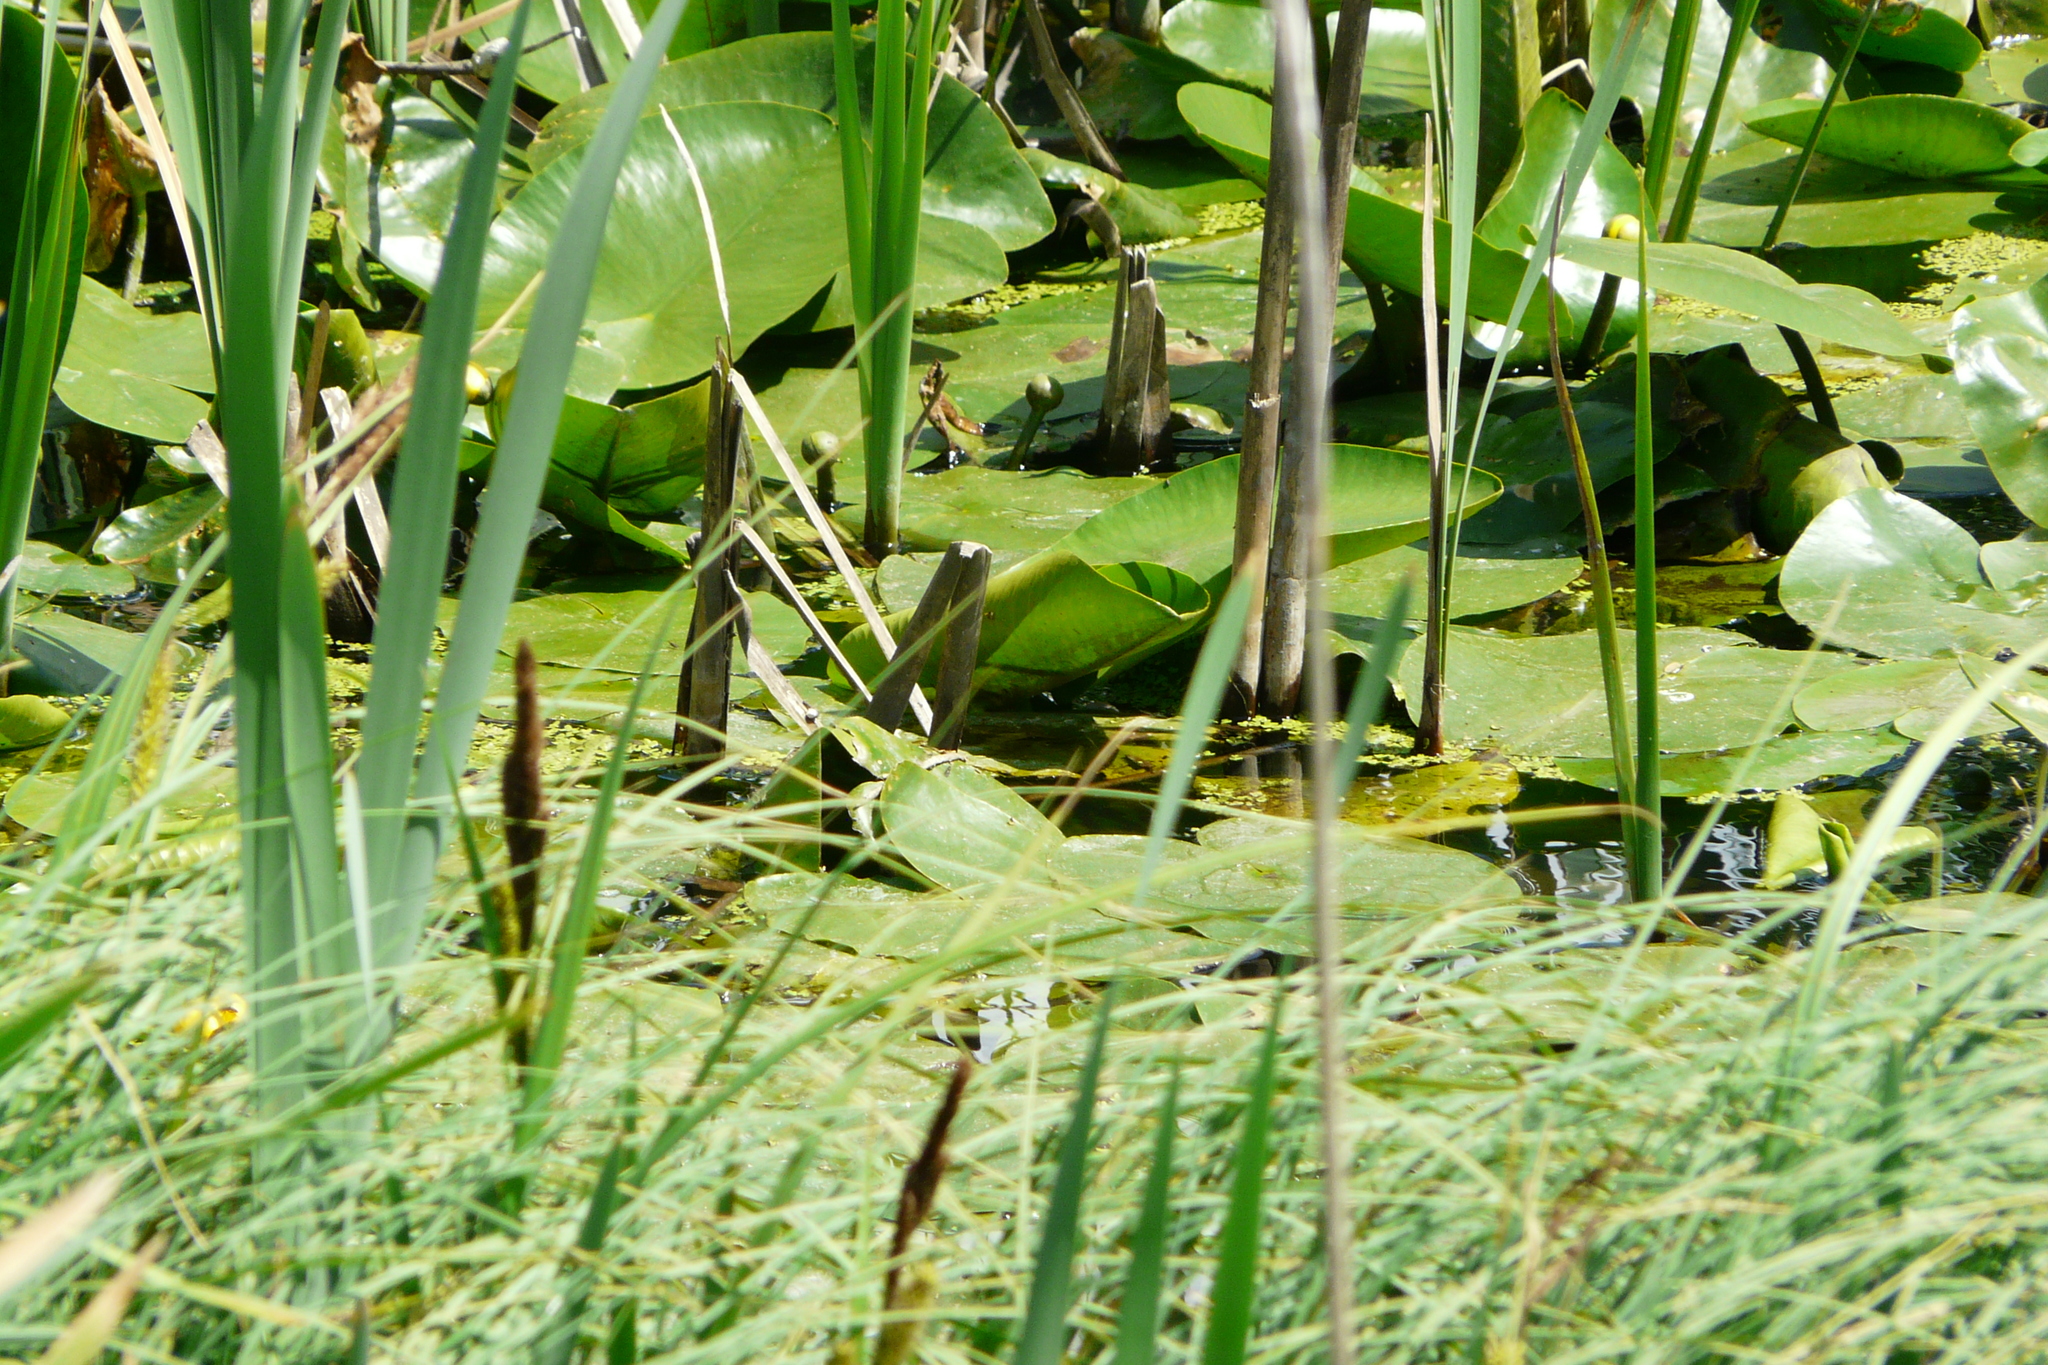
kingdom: Plantae
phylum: Tracheophyta
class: Magnoliopsida
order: Nymphaeales
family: Nymphaeaceae
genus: Nuphar
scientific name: Nuphar lutea
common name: Yellow water-lily
